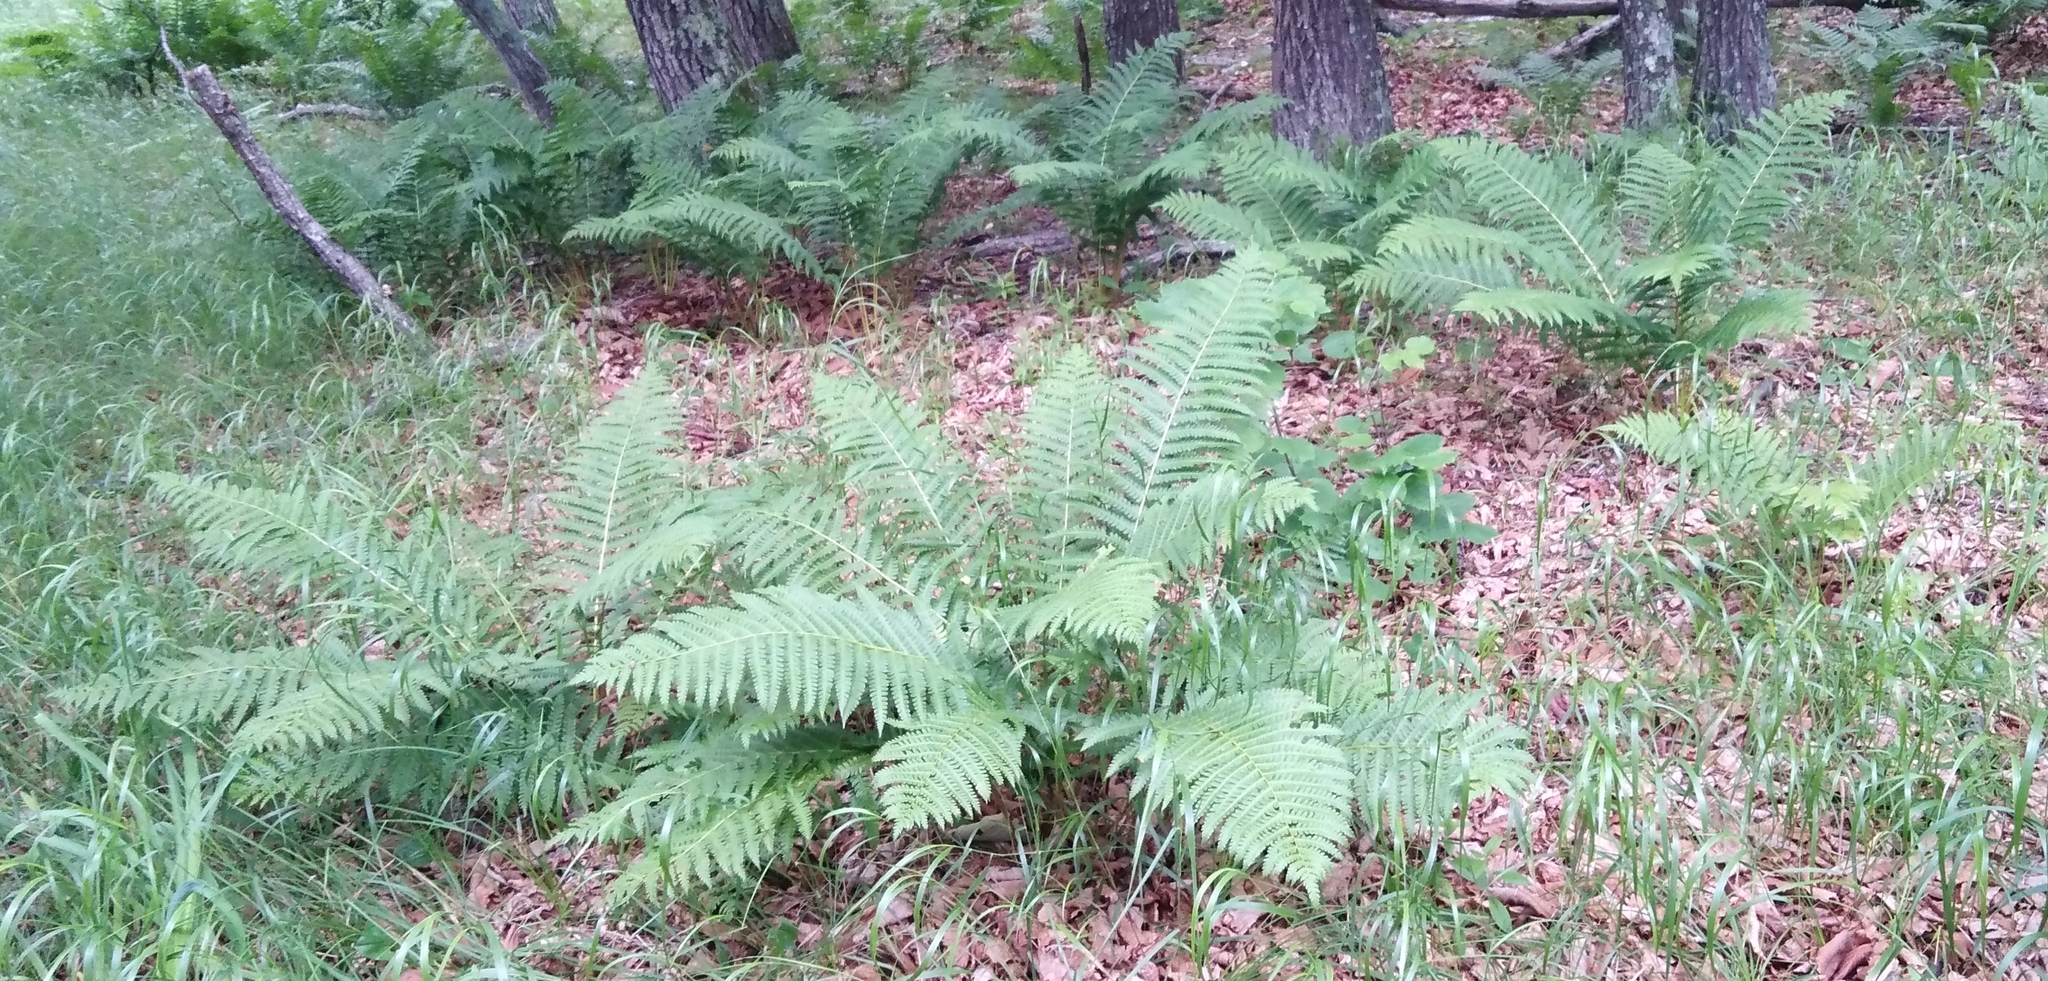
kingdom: Plantae
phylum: Tracheophyta
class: Polypodiopsida
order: Osmundales
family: Osmundaceae
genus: Osmundastrum
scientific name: Osmundastrum cinnamomeum
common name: Cinnamon fern
